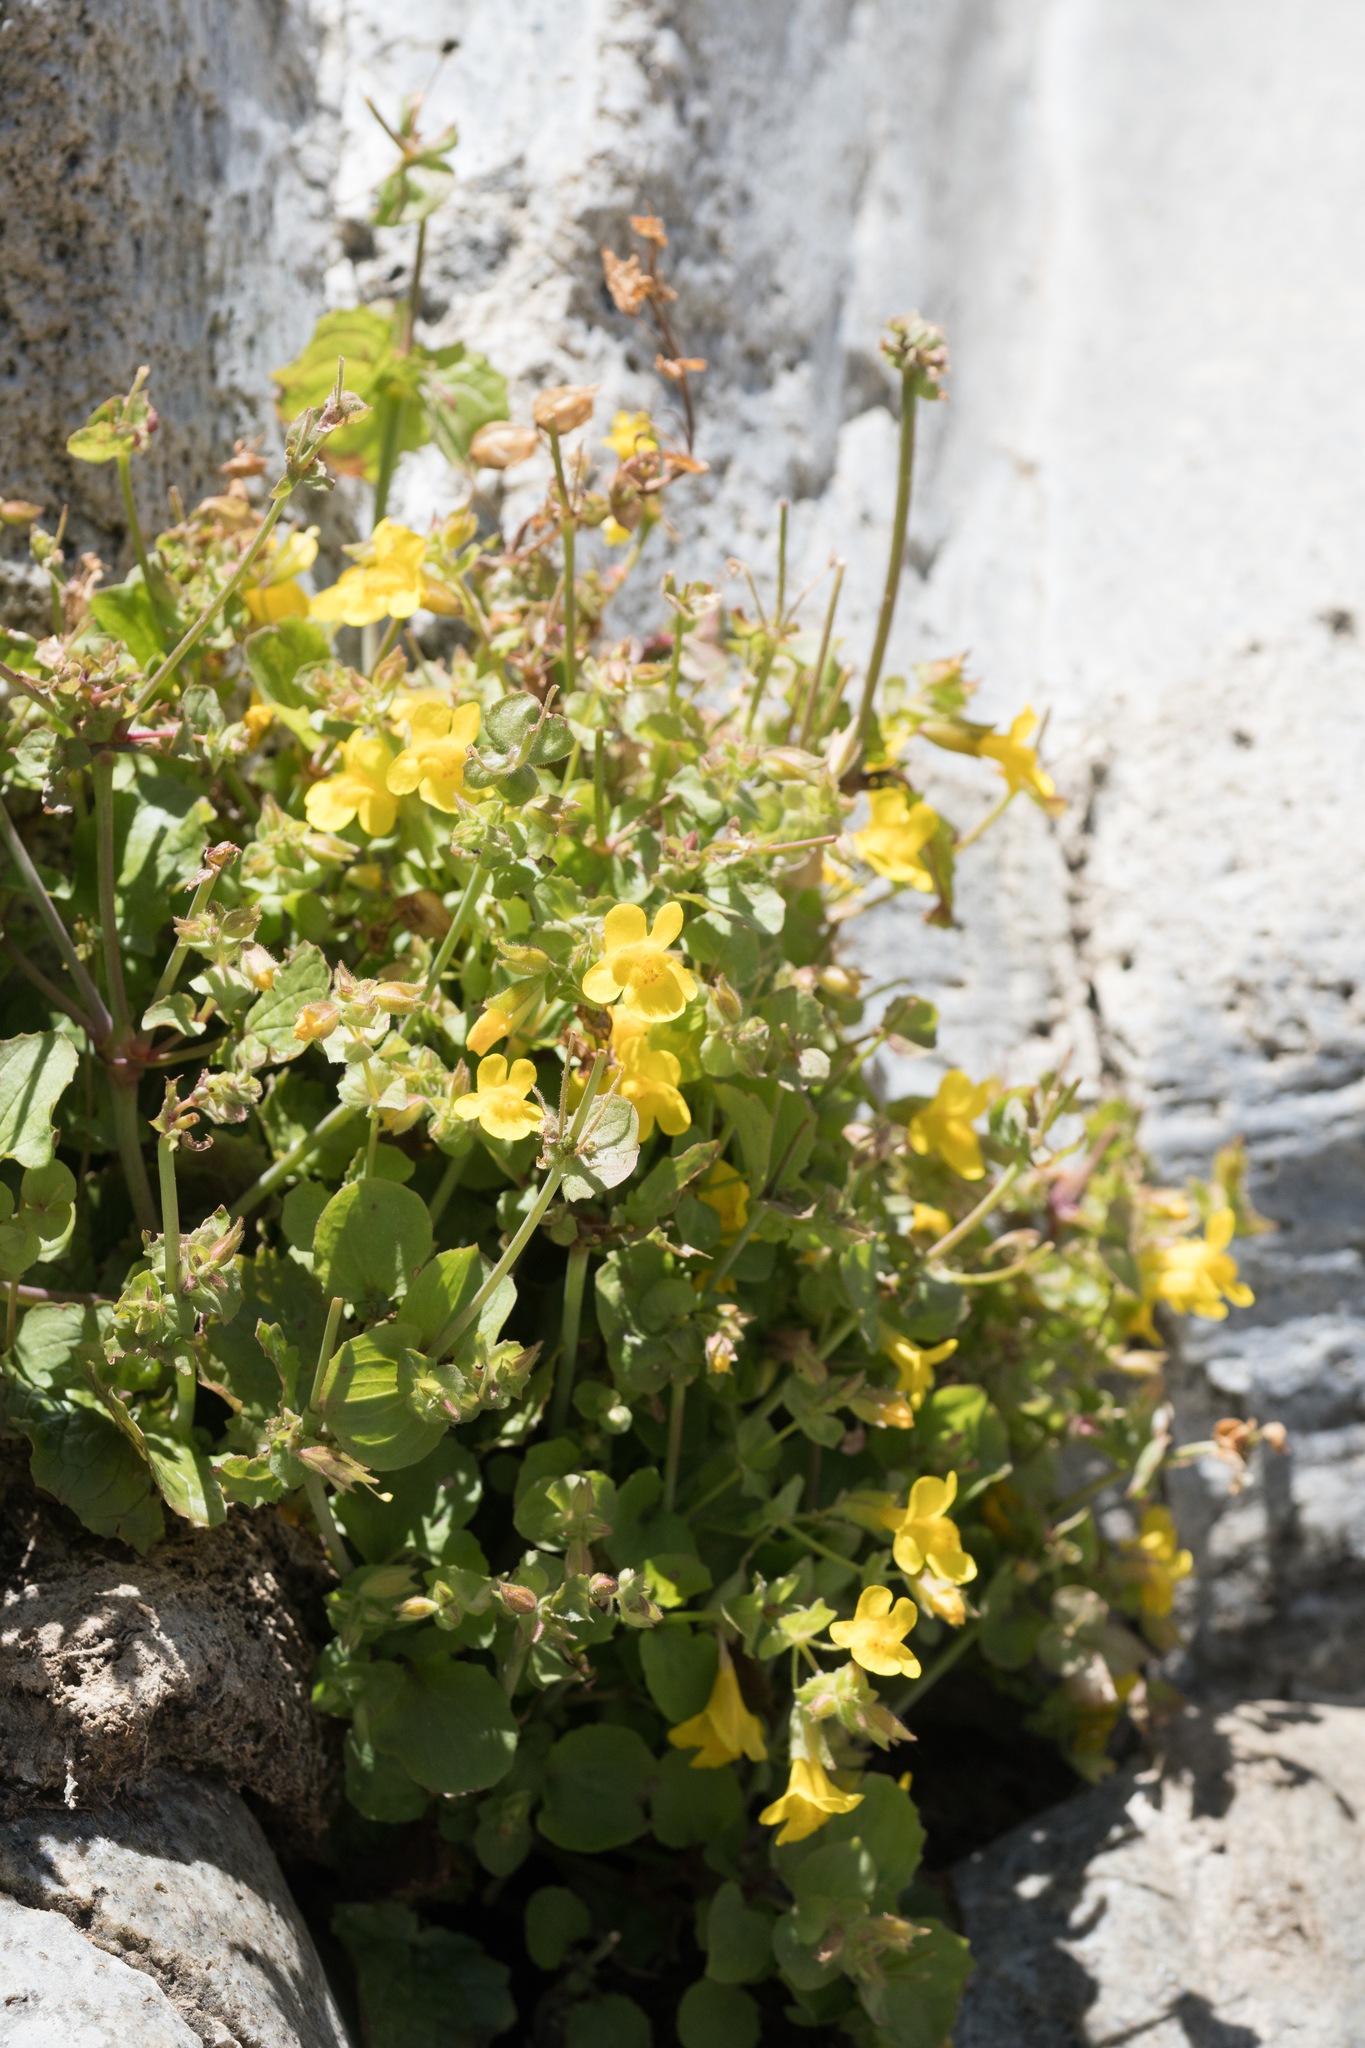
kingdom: Plantae
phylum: Tracheophyta
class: Magnoliopsida
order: Lamiales
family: Phrymaceae
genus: Erythranthe
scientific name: Erythranthe guttata
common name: Monkeyflower
